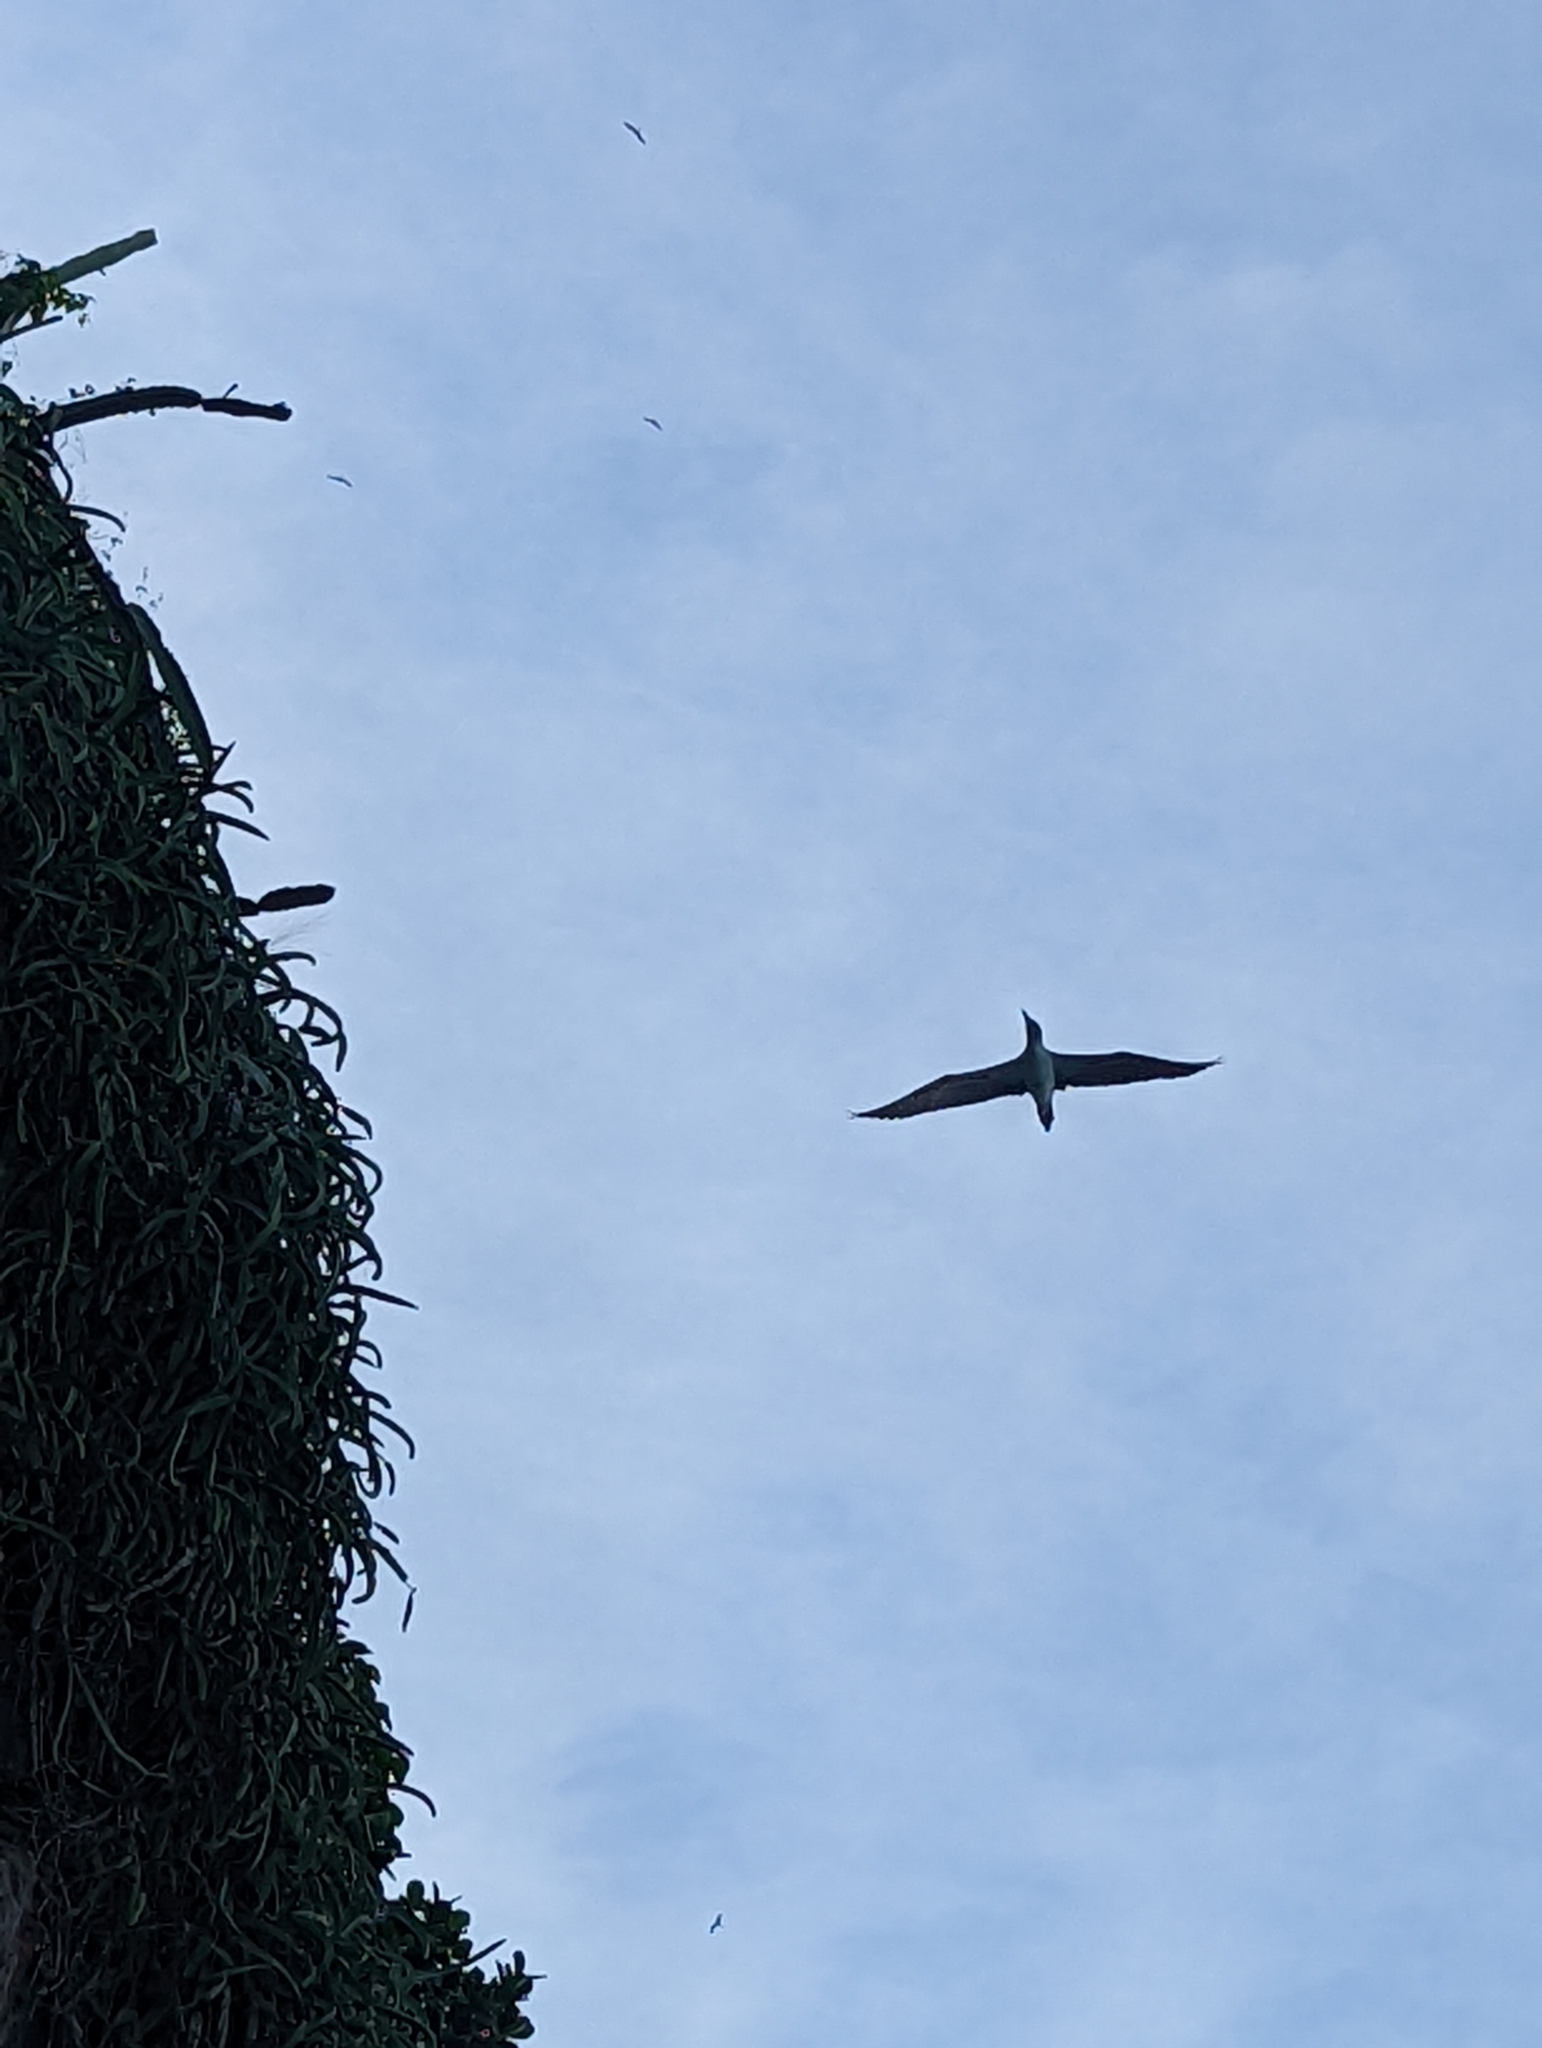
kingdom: Animalia
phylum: Chordata
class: Aves
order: Suliformes
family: Sulidae
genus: Sula
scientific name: Sula nebouxii
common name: Blue-footed booby
